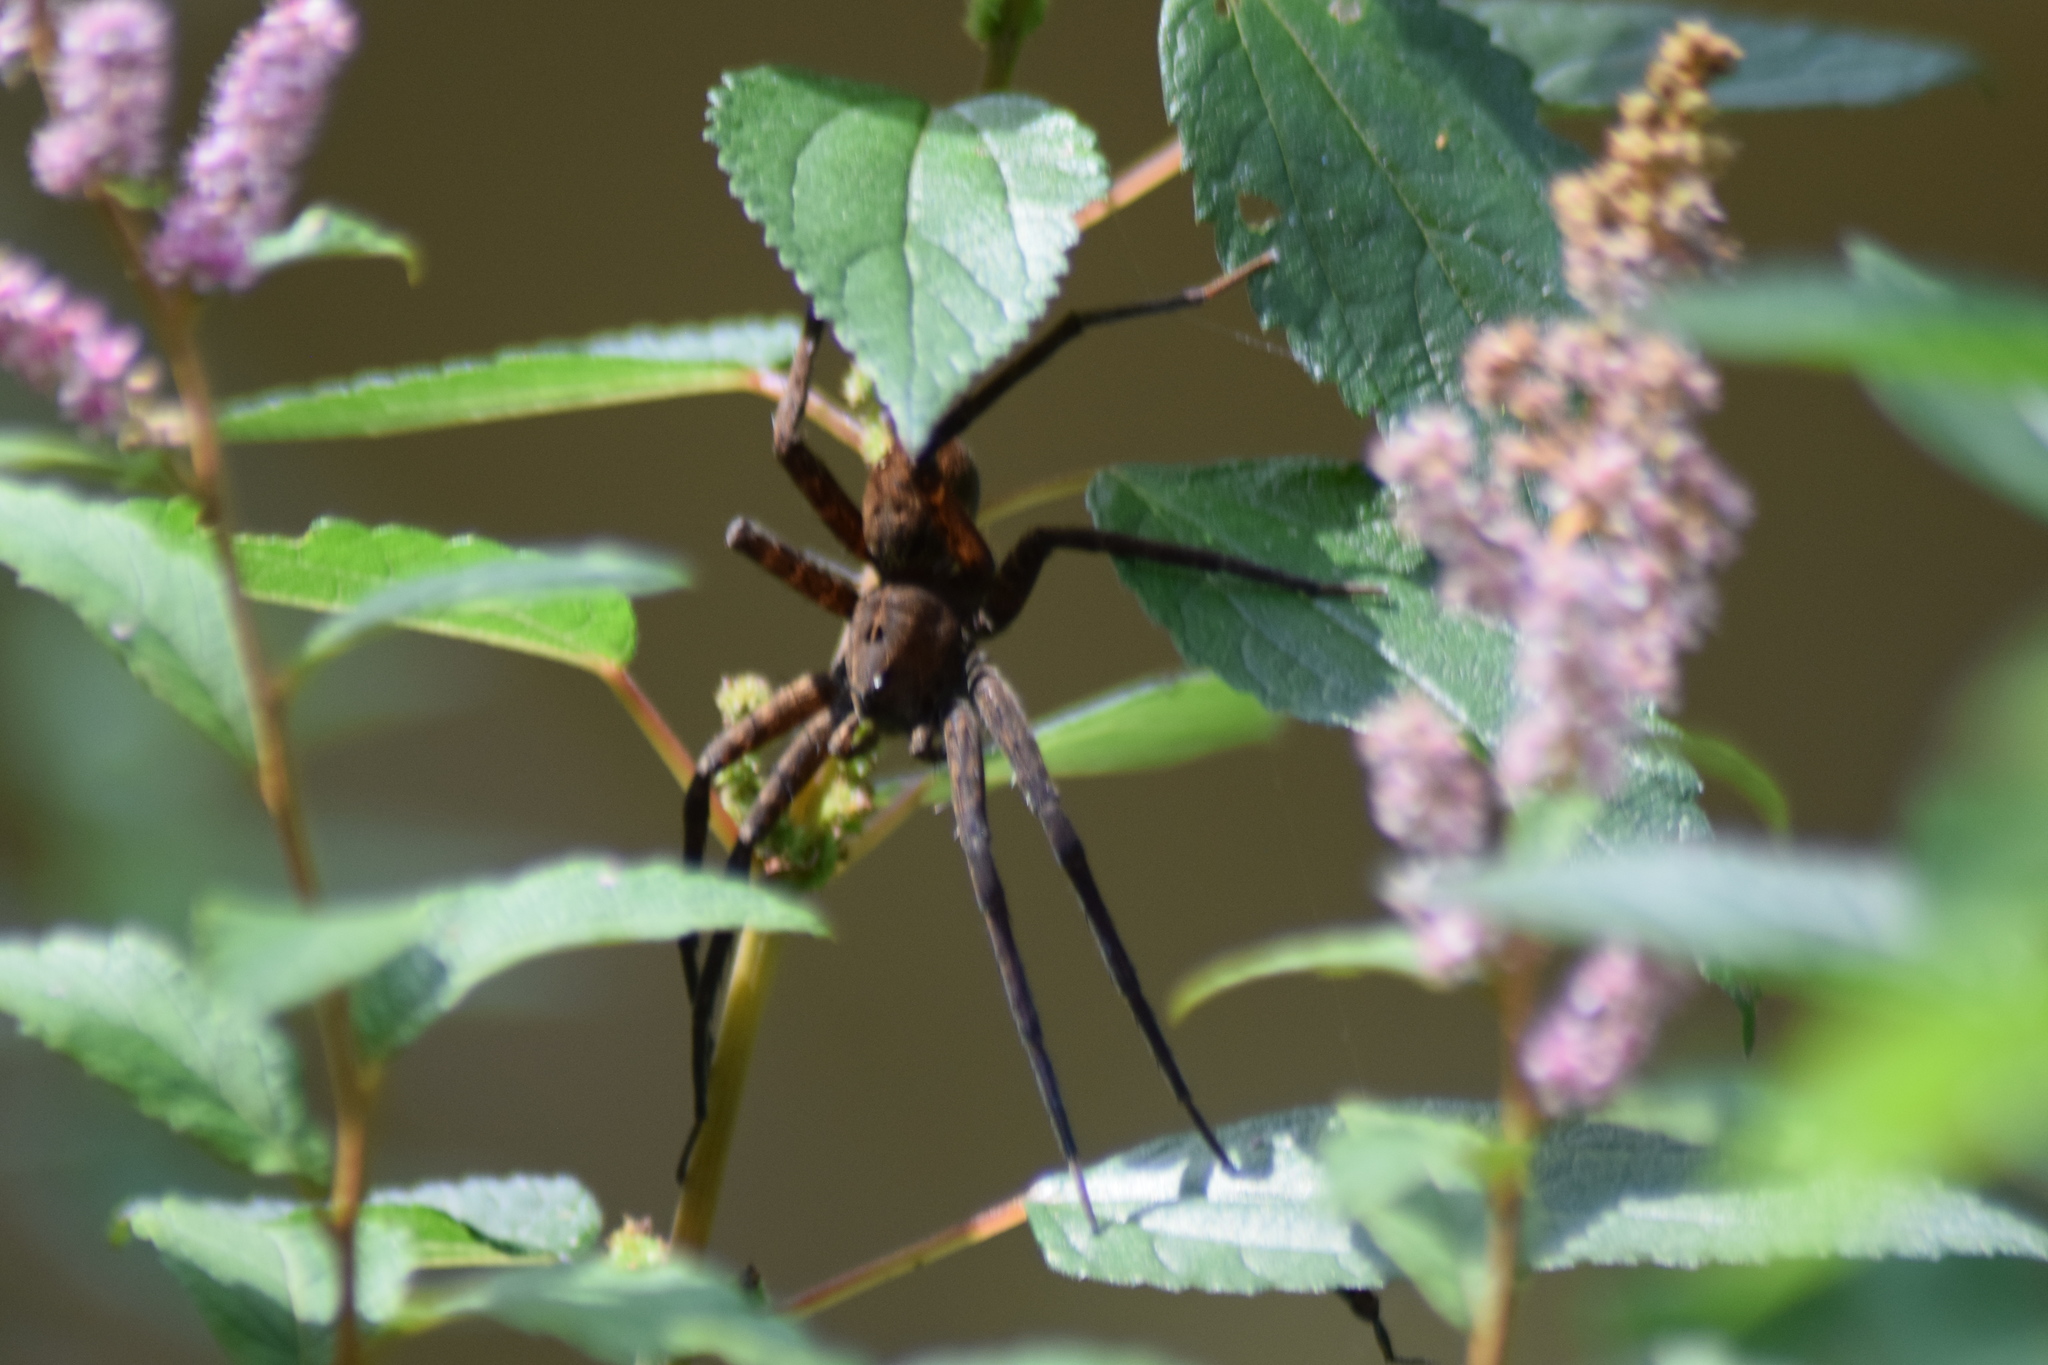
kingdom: Animalia
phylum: Arthropoda
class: Arachnida
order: Araneae
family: Pisauridae
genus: Dolomedes
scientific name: Dolomedes vittatus
